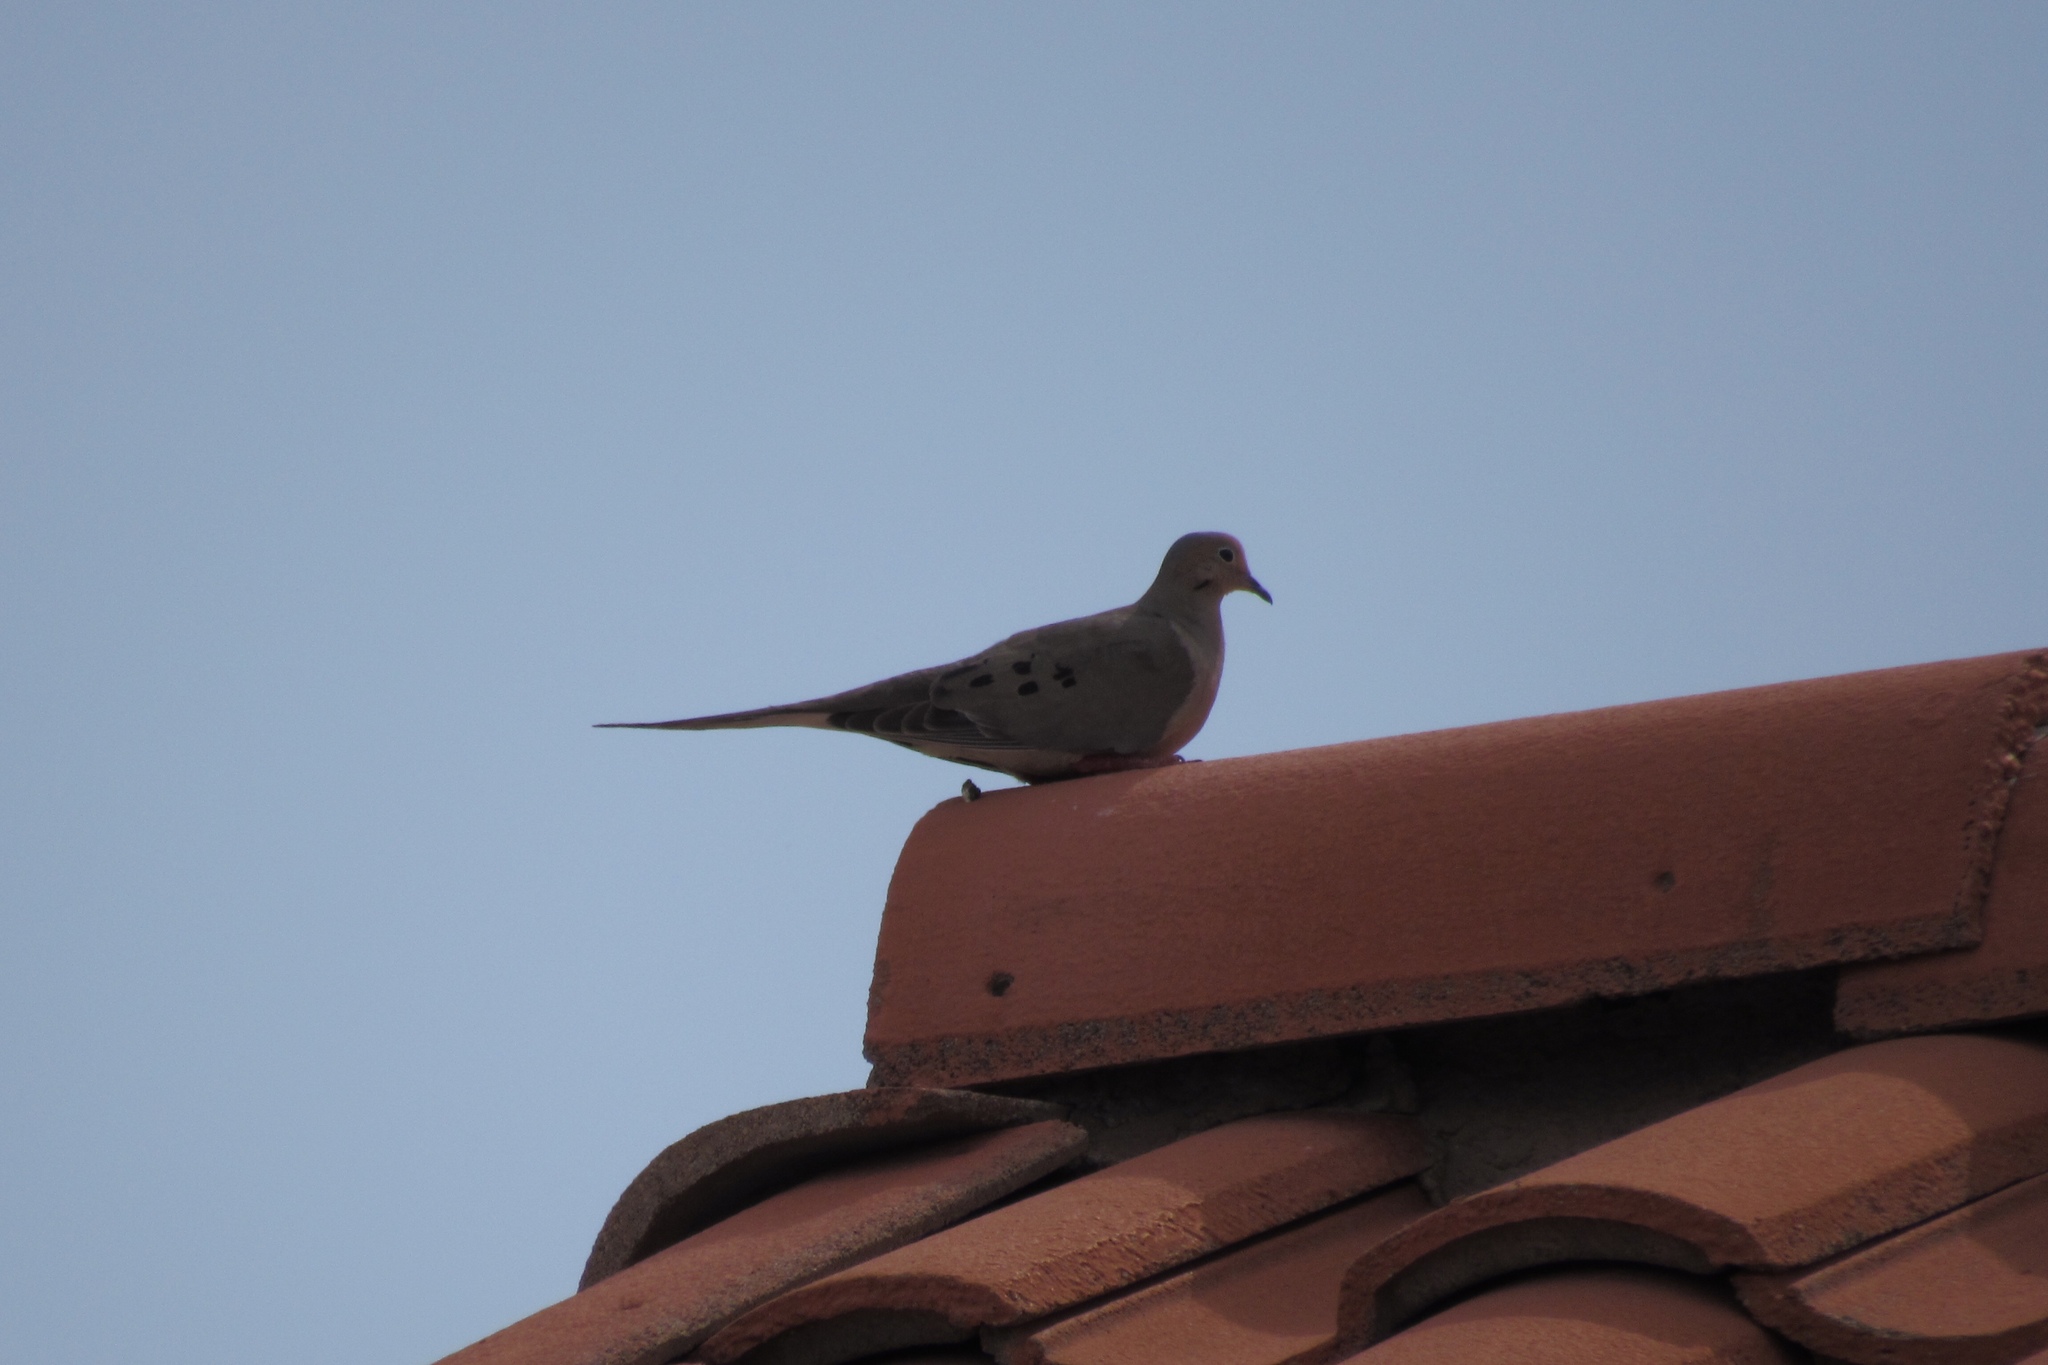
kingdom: Animalia
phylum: Chordata
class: Aves
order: Columbiformes
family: Columbidae
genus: Zenaida
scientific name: Zenaida macroura
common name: Mourning dove
